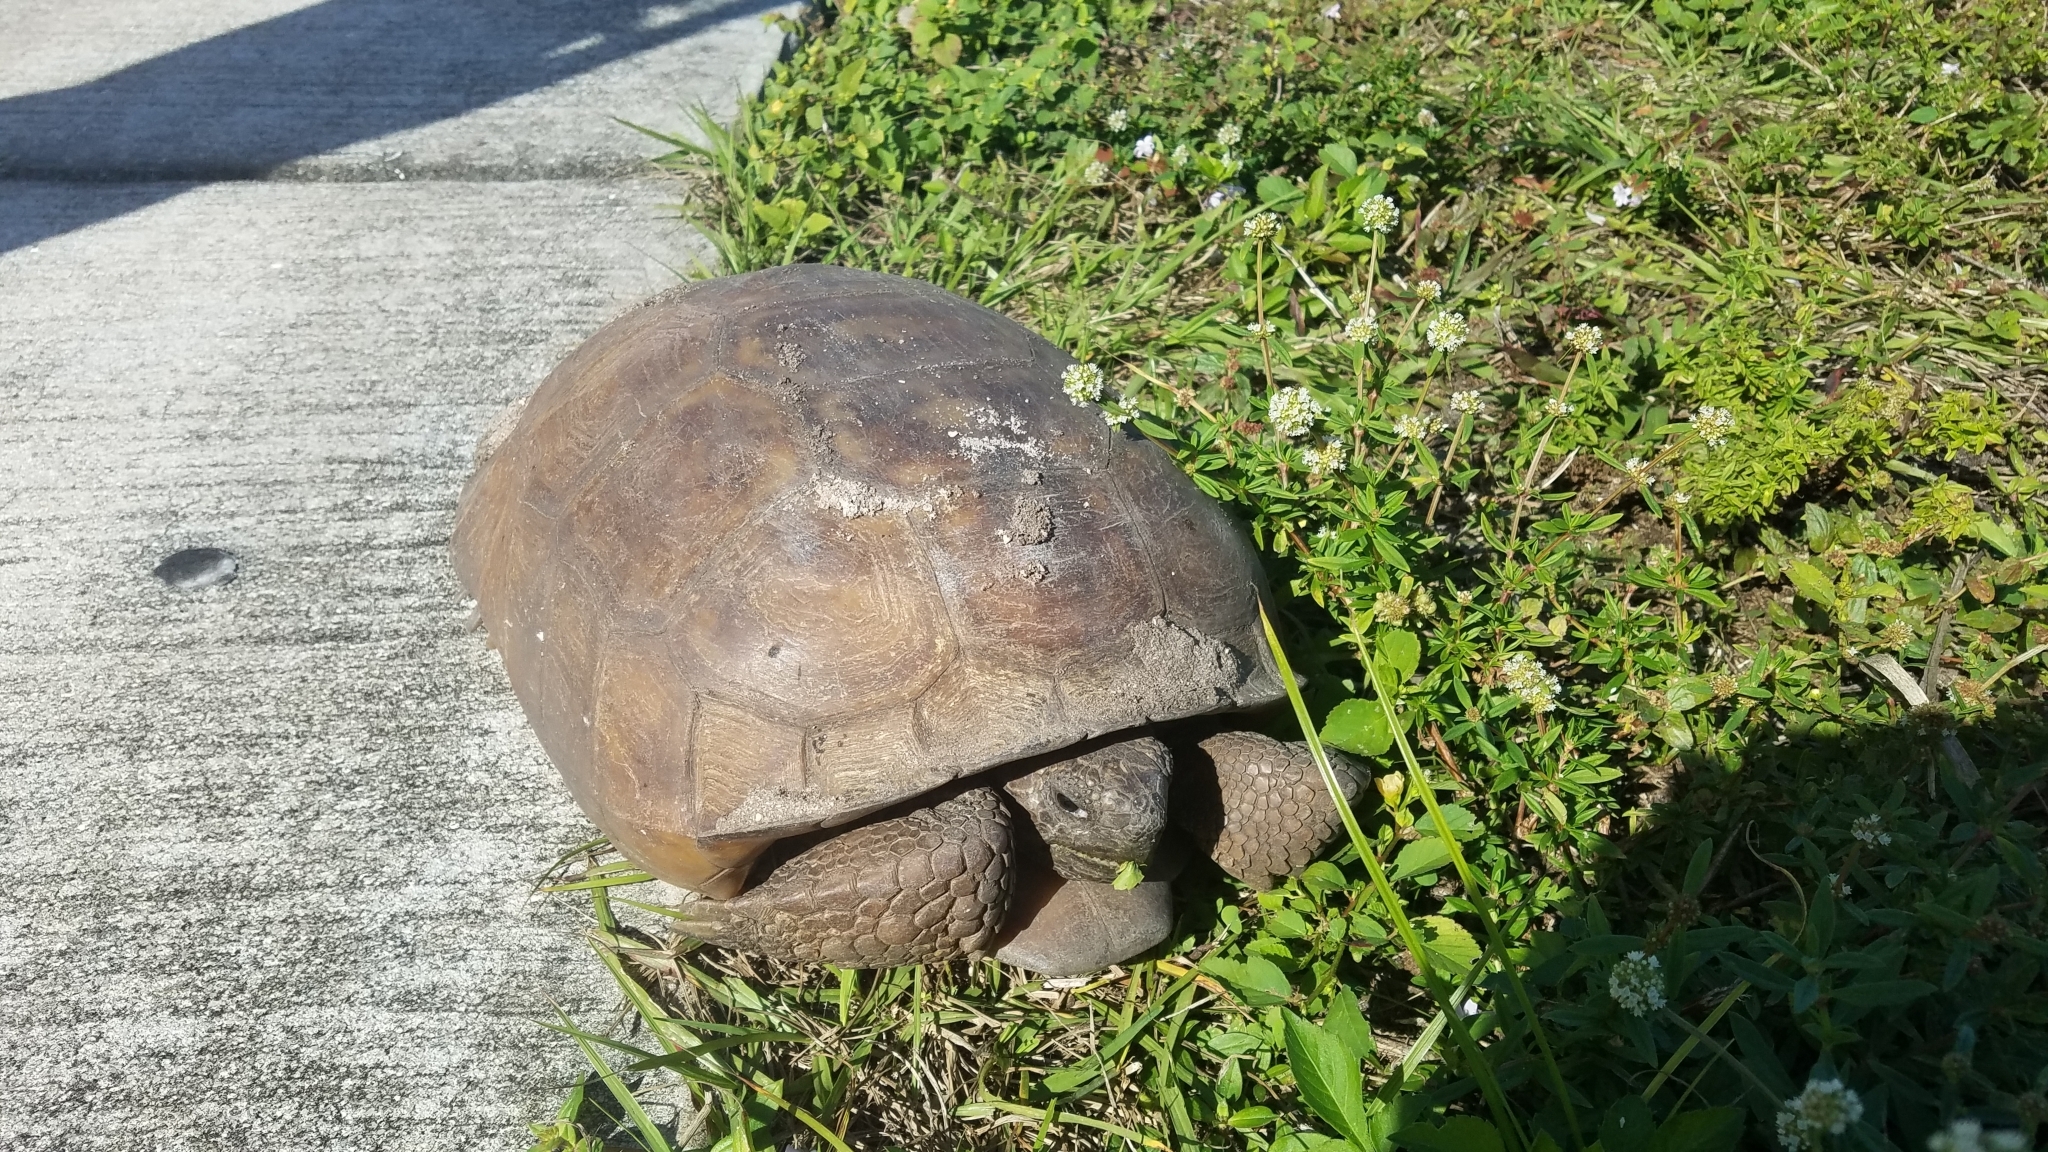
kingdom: Animalia
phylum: Chordata
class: Testudines
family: Testudinidae
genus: Gopherus
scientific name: Gopherus polyphemus
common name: Florida gopher tortoise
